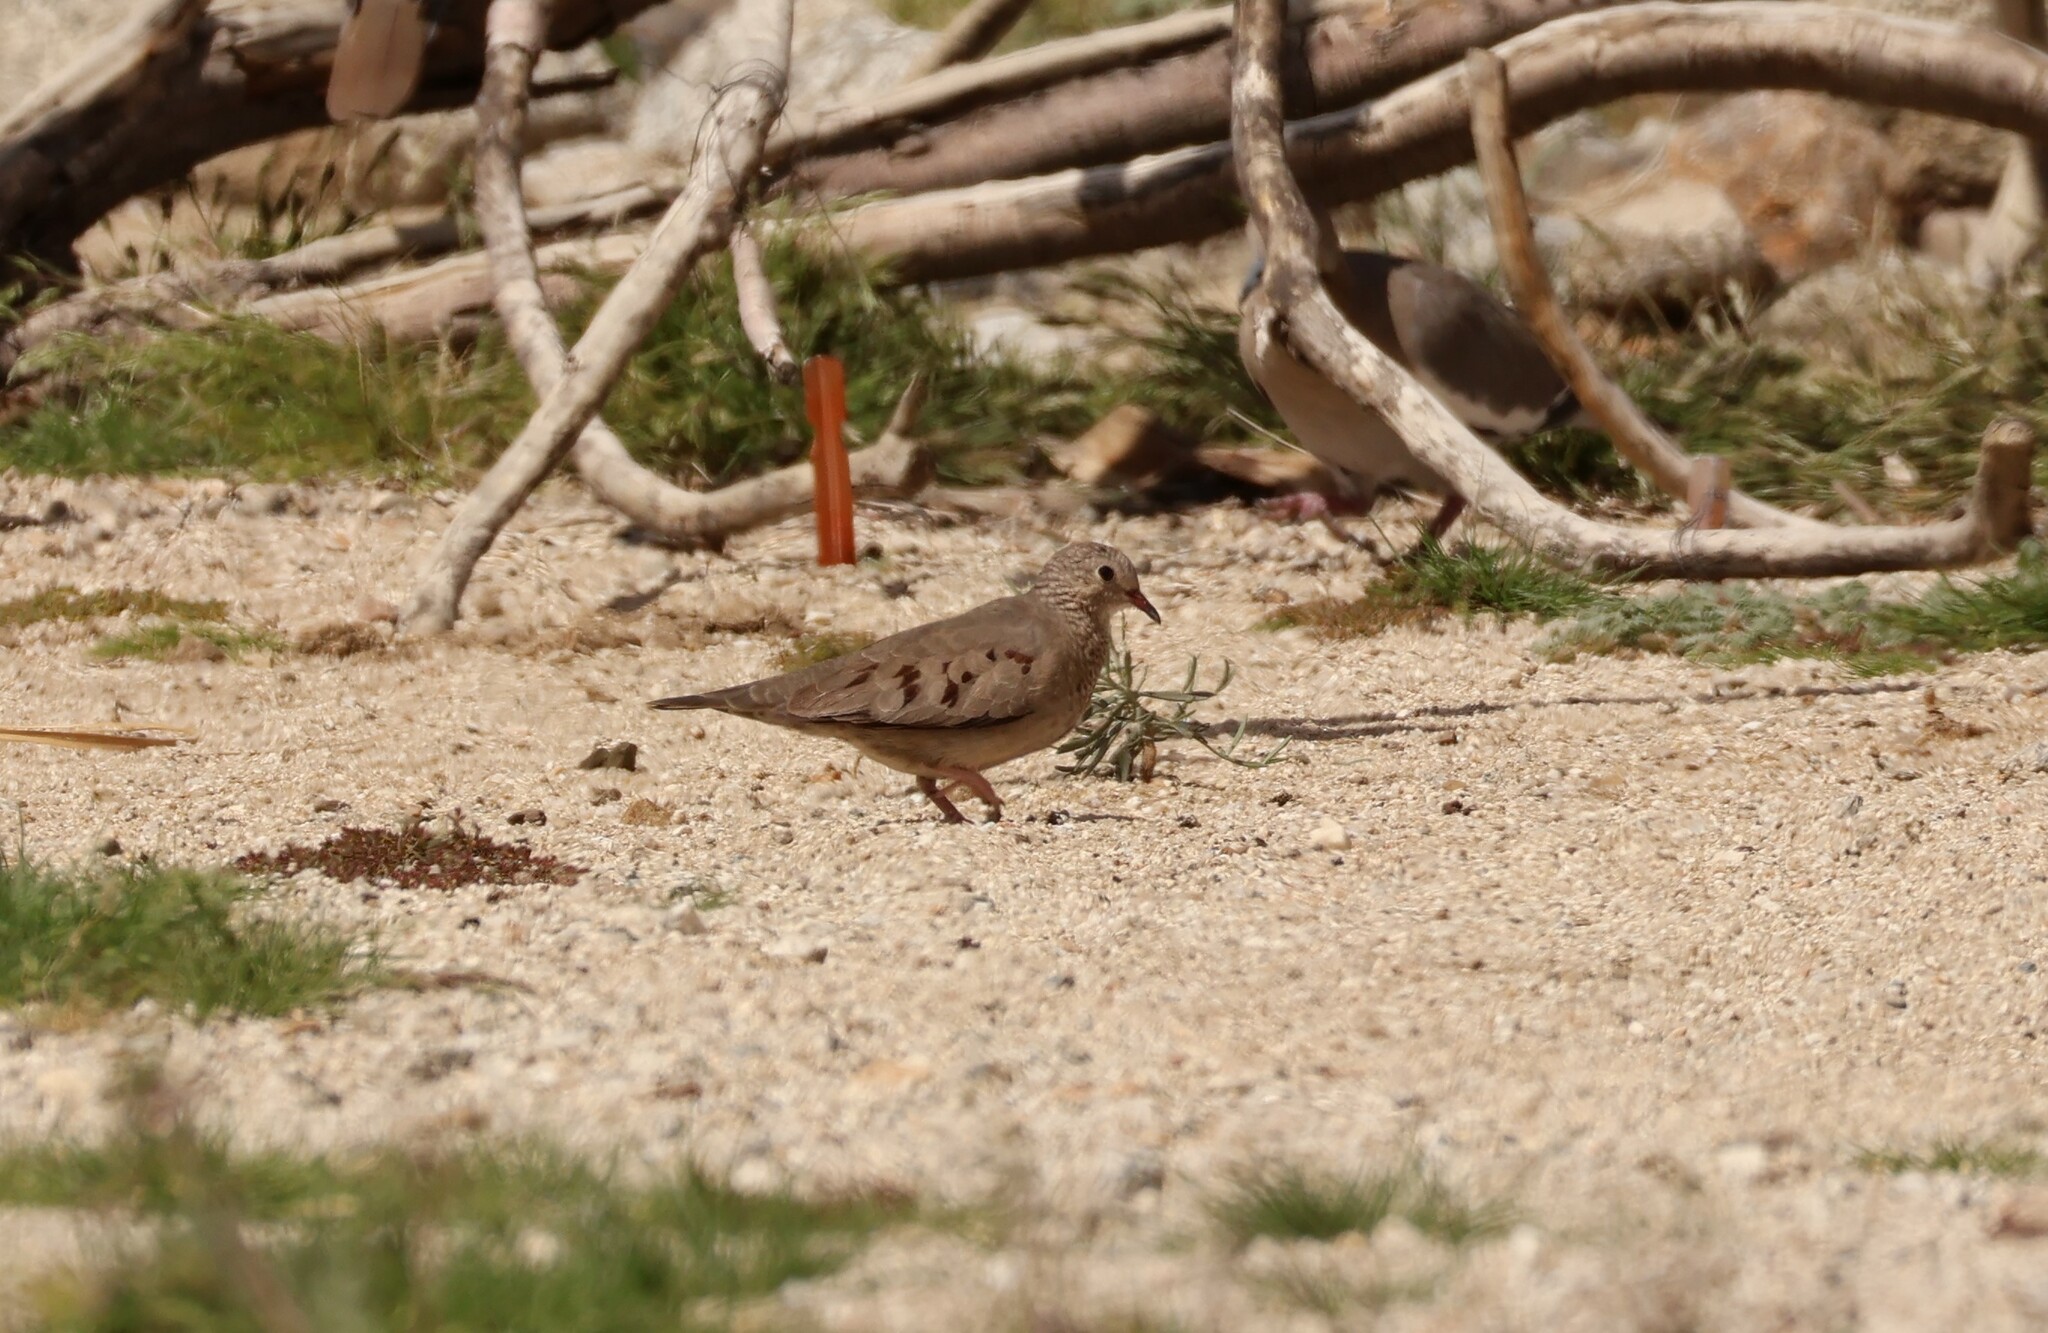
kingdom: Animalia
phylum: Chordata
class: Aves
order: Columbiformes
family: Columbidae
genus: Columbina
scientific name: Columbina passerina
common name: Common ground-dove
